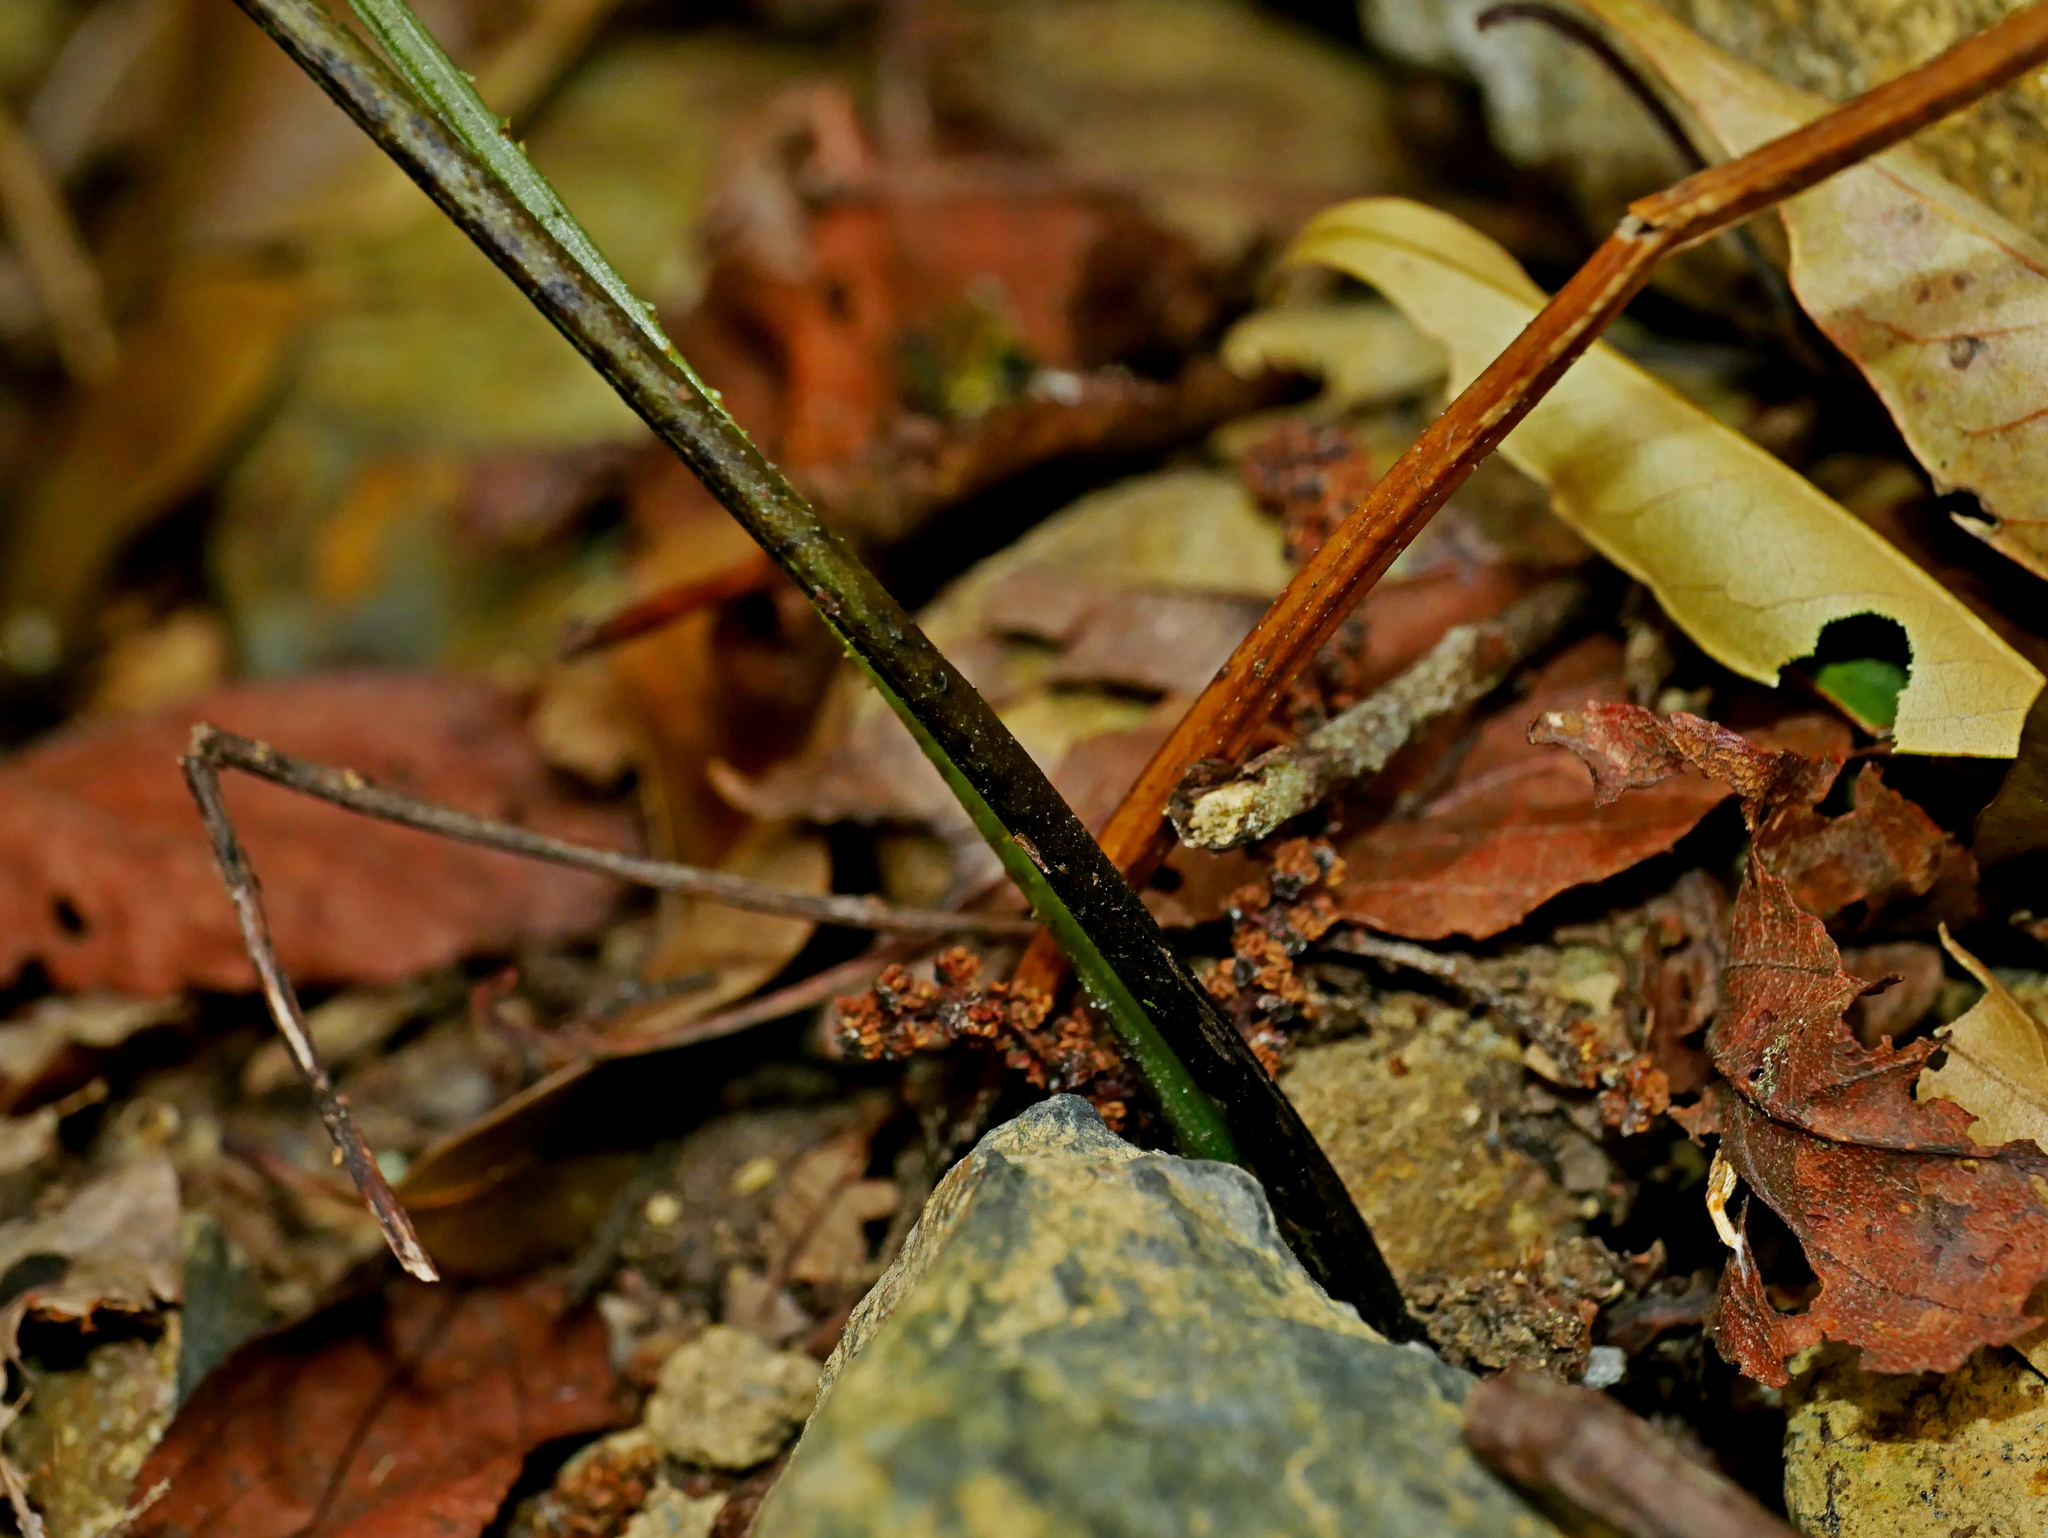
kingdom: Plantae
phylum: Tracheophyta
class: Polypodiopsida
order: Polypodiales
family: Athyriaceae
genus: Diplazium
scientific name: Diplazium kawakamii
